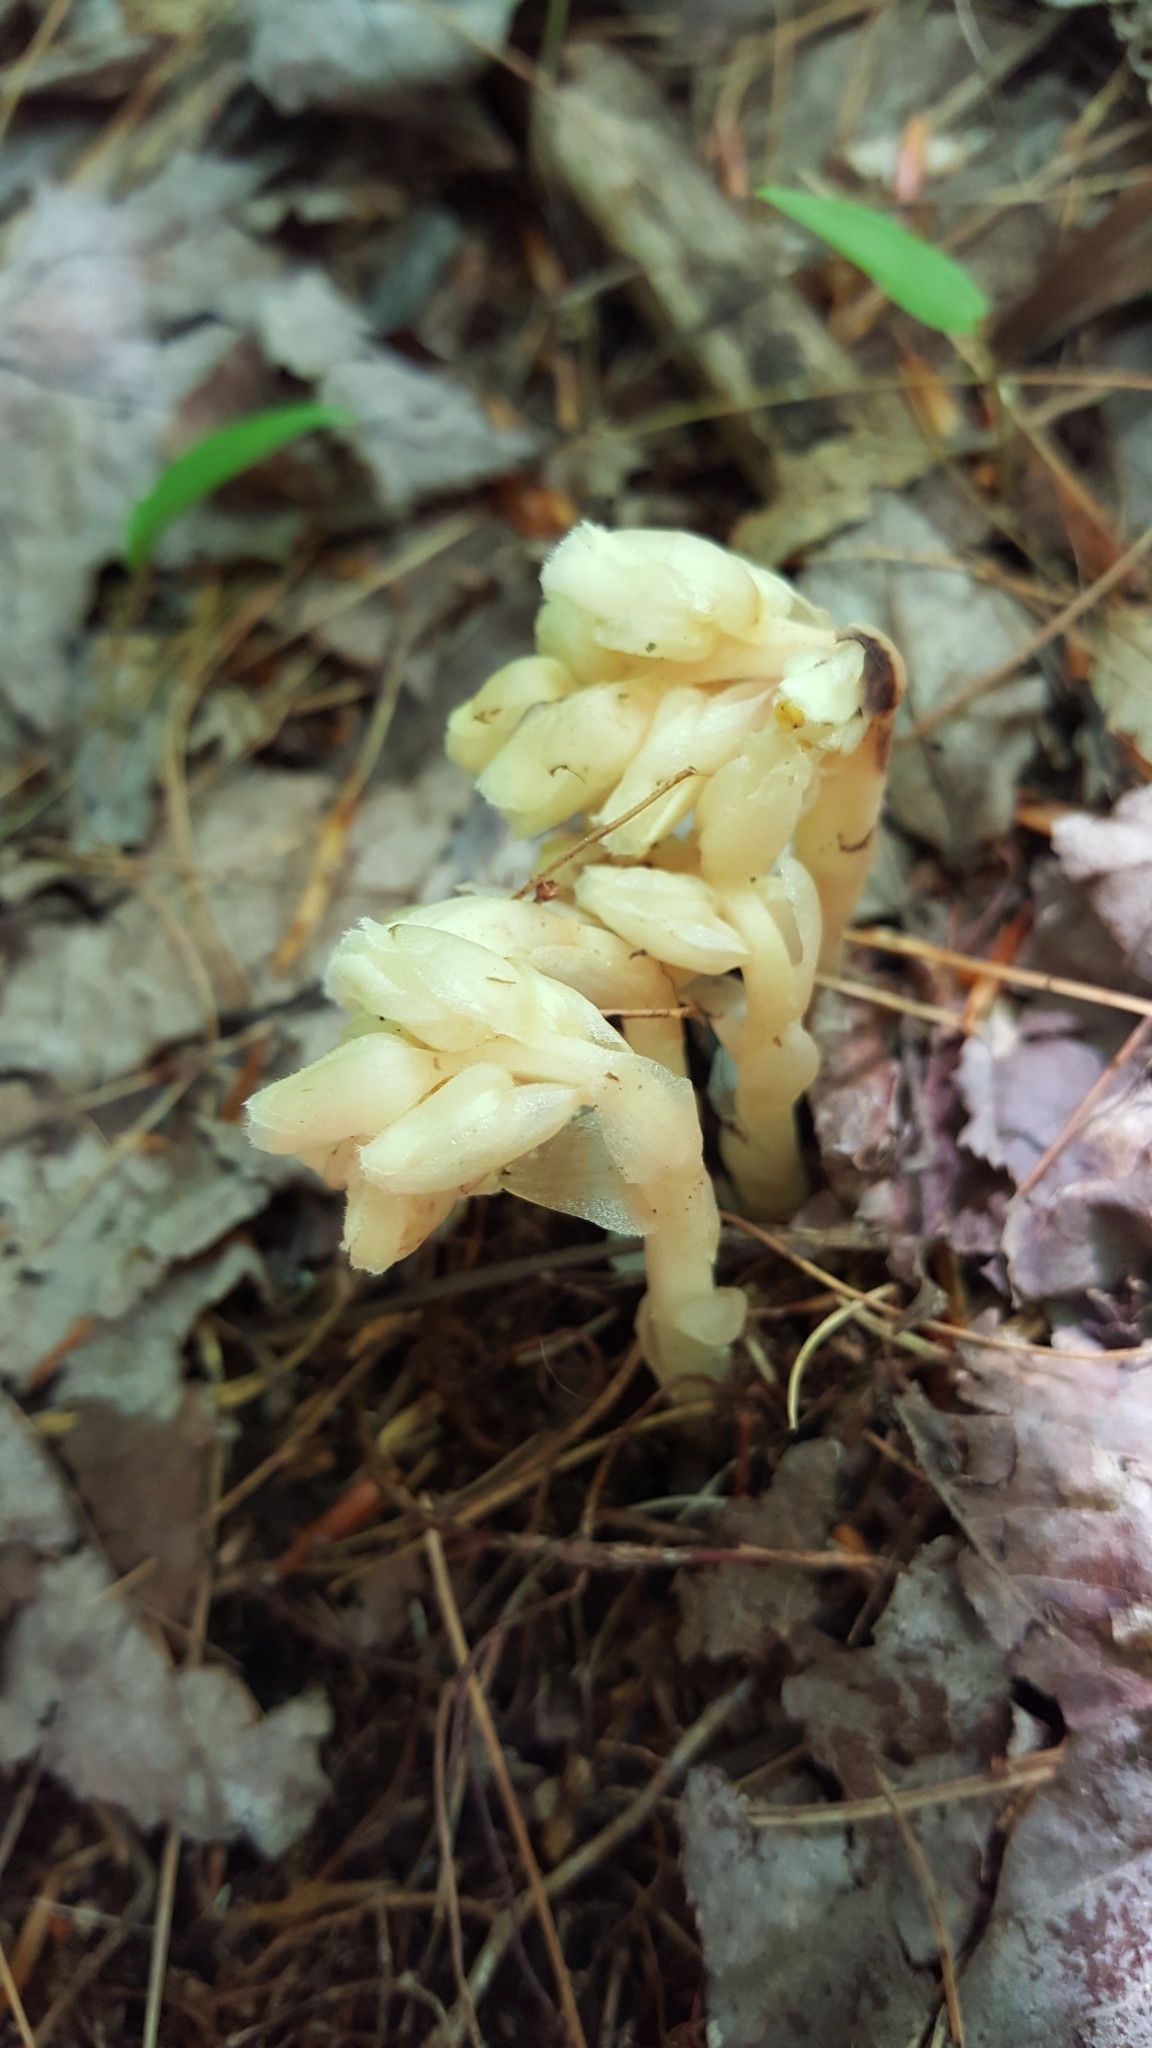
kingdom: Plantae
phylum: Tracheophyta
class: Magnoliopsida
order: Ericales
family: Ericaceae
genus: Hypopitys
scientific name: Hypopitys monotropa
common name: Yellow bird's-nest
